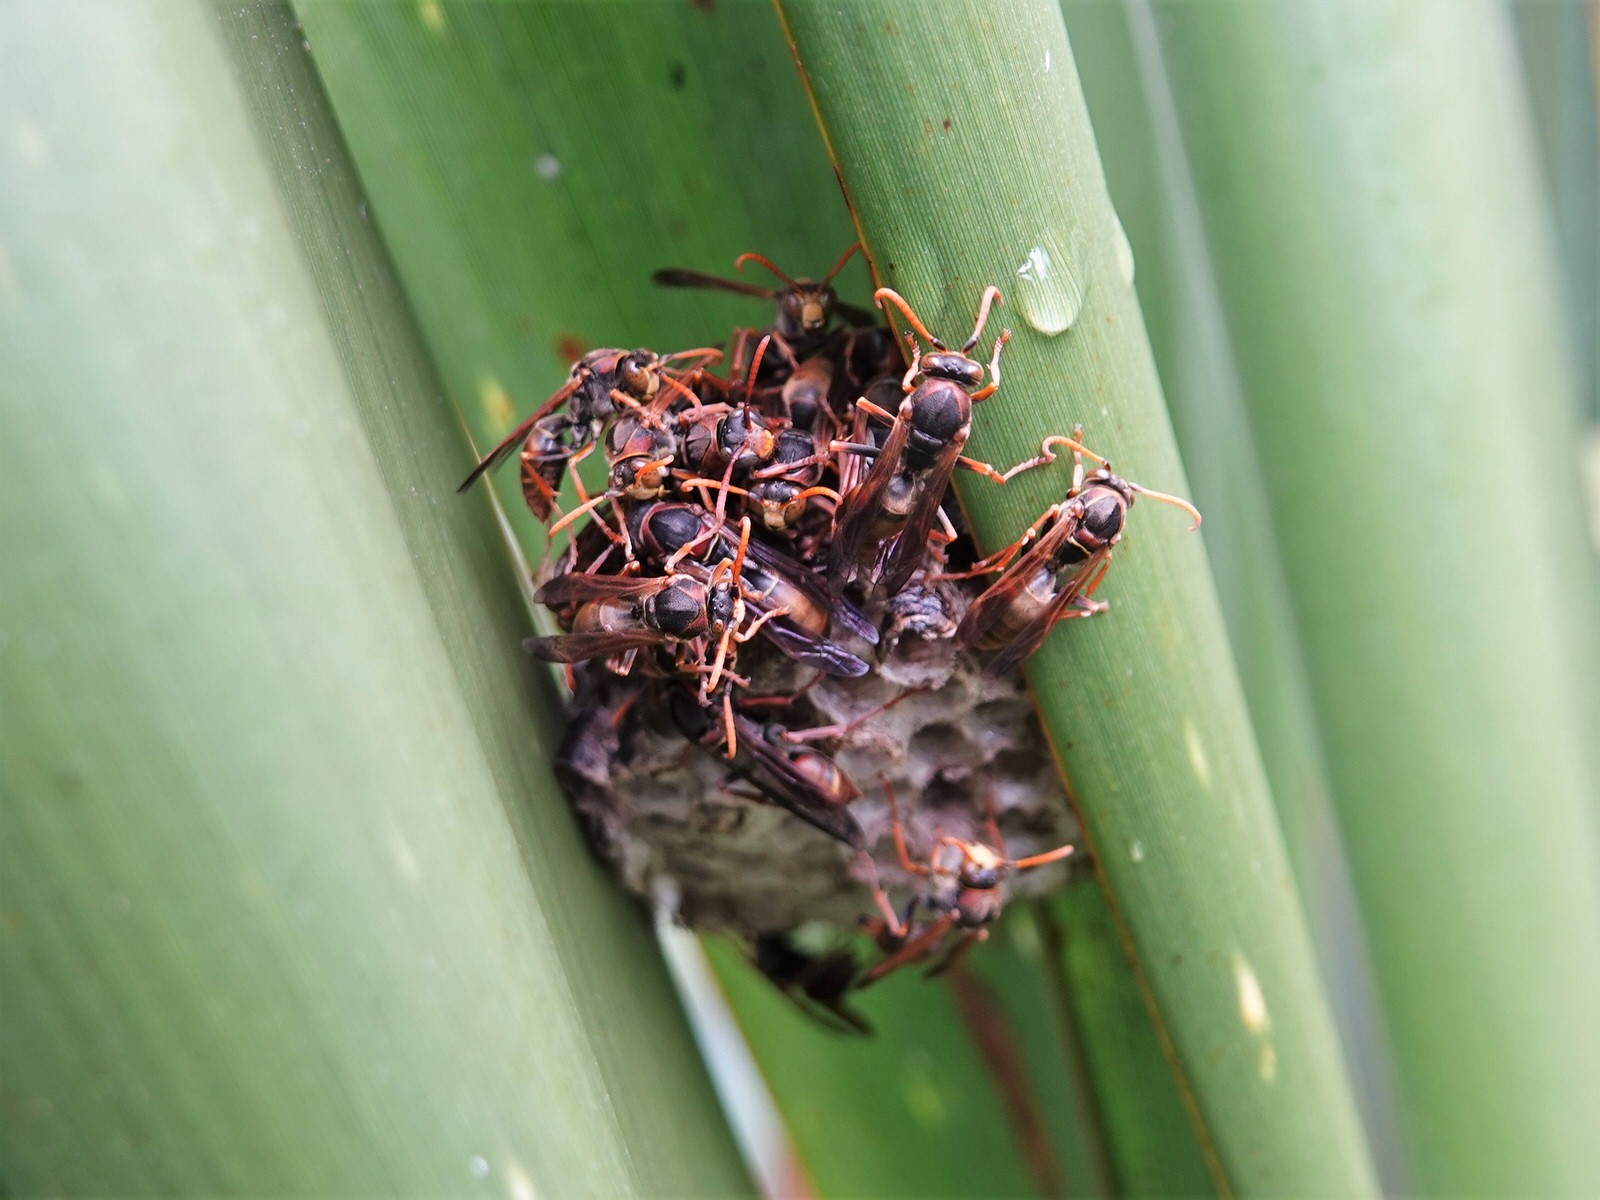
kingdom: Animalia
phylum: Arthropoda
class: Insecta
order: Hymenoptera
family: Eumenidae
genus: Polistes
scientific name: Polistes humilis
